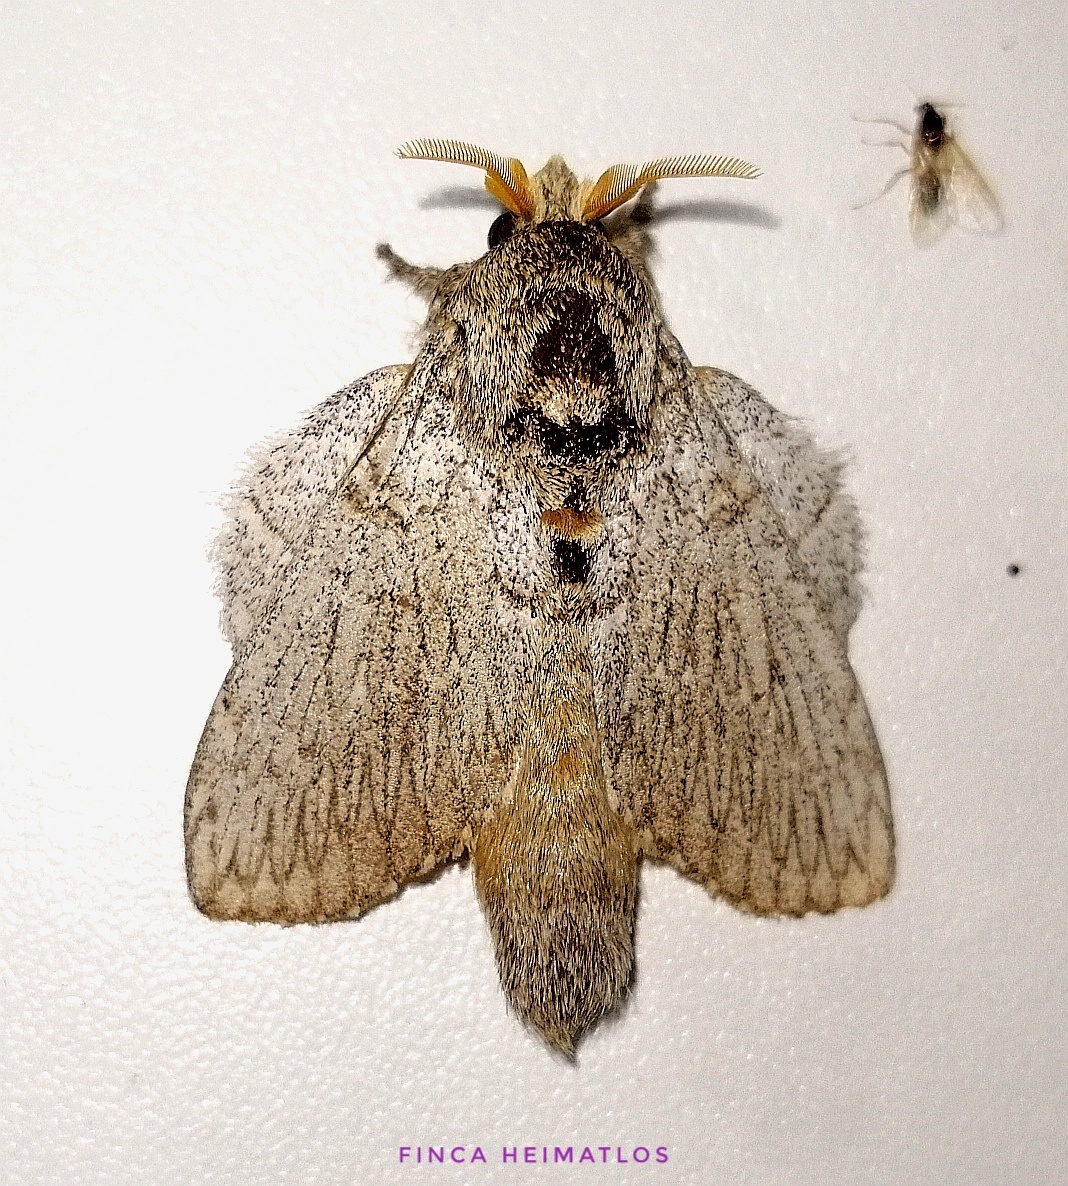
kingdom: Animalia
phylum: Arthropoda
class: Insecta
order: Lepidoptera
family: Lasiocampidae
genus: Euglyphis
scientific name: Euglyphis phidonia
